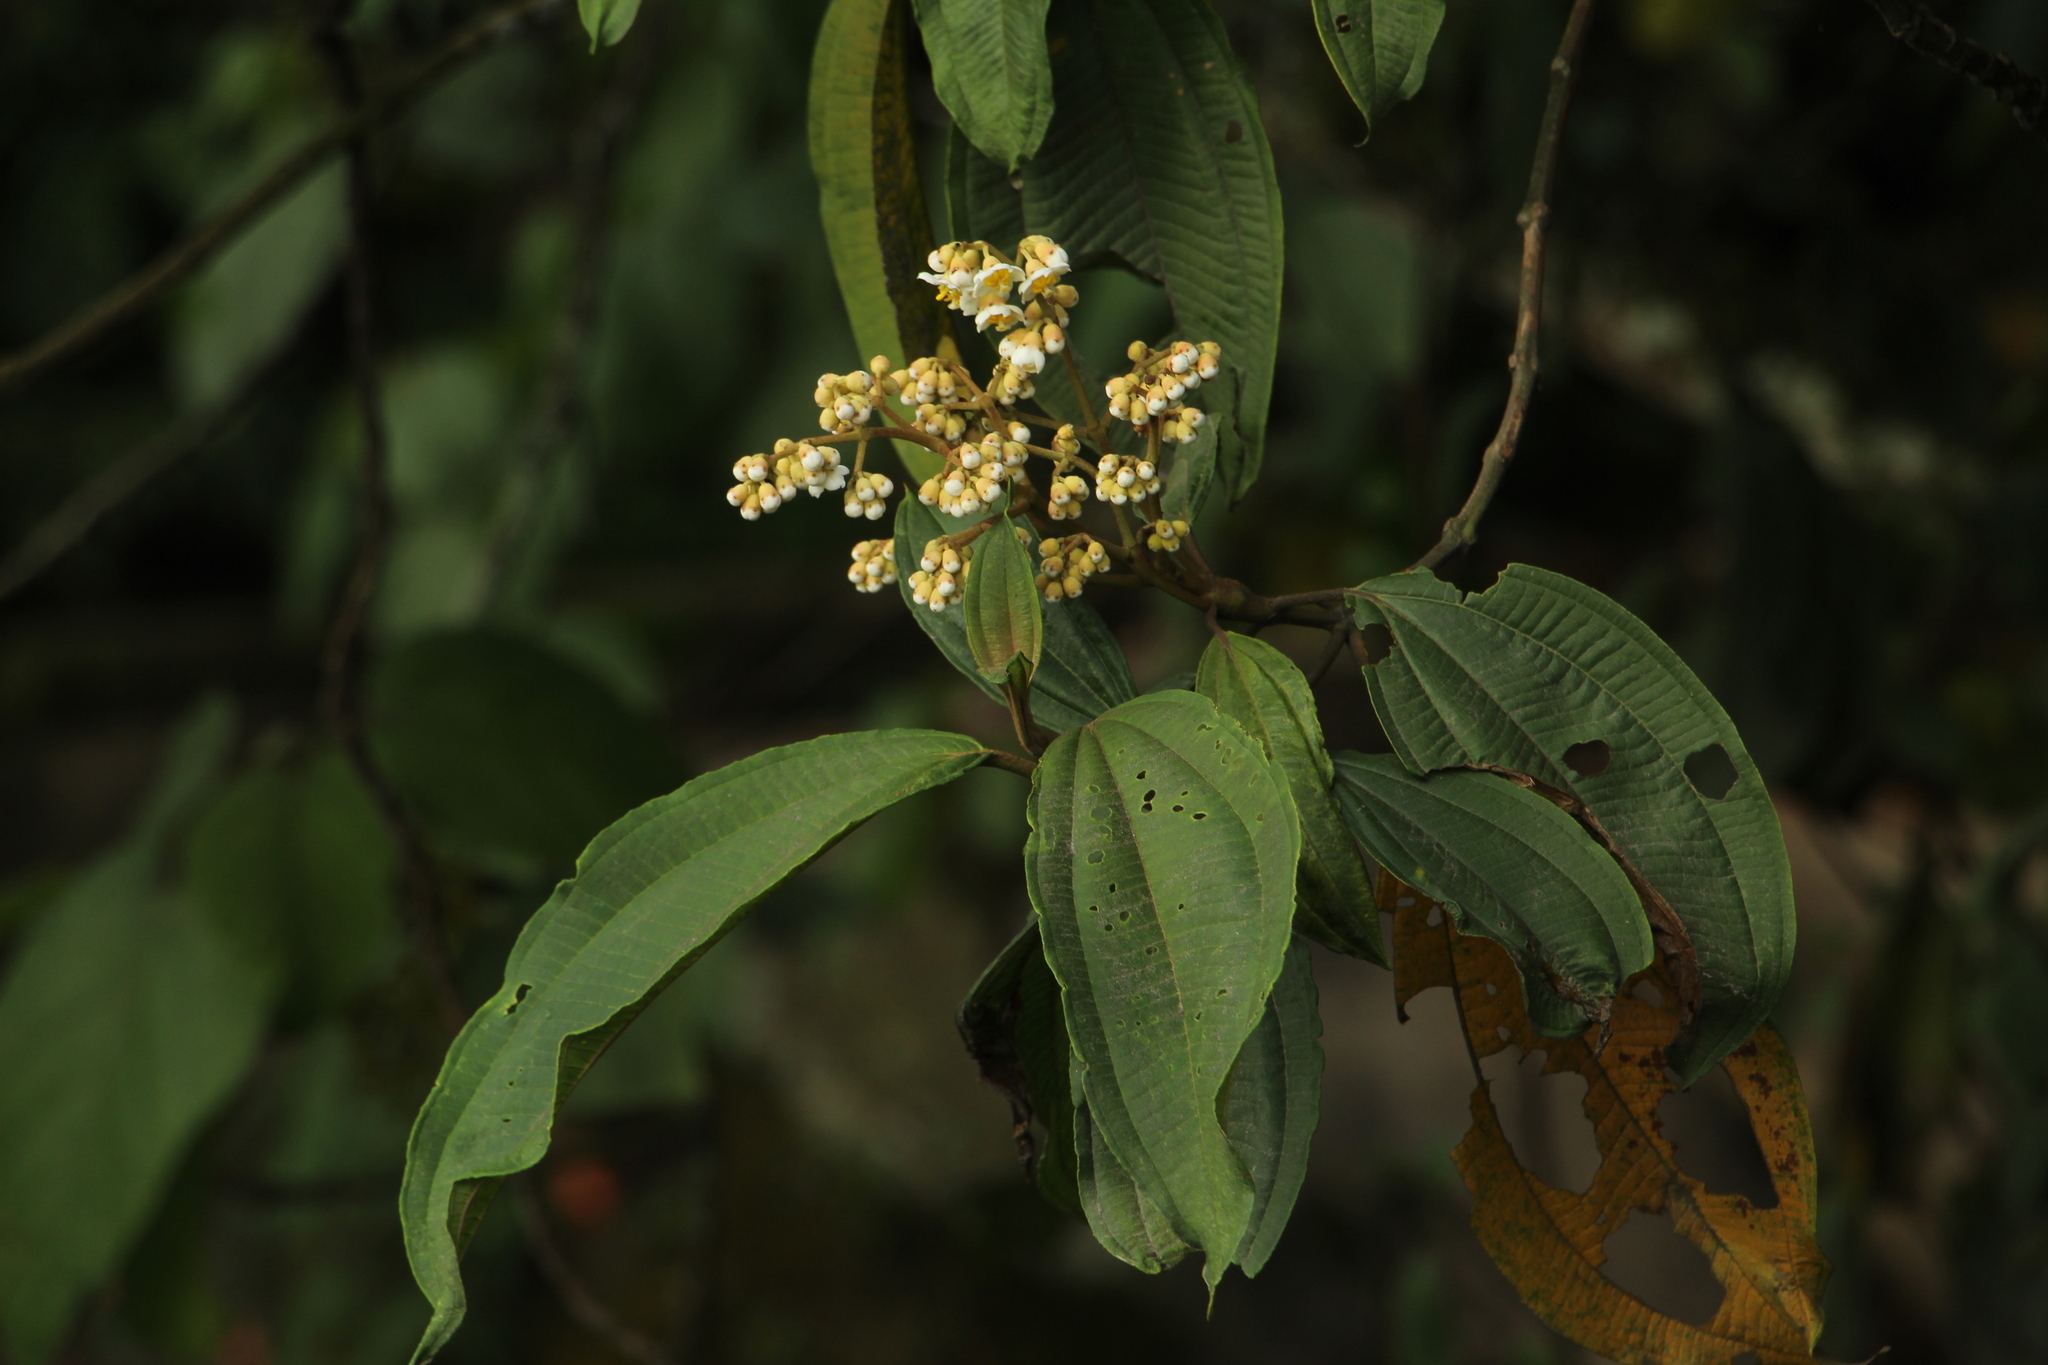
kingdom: Plantae
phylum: Tracheophyta
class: Magnoliopsida
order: Myrtales
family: Melastomataceae
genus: Miconia
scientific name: Miconia bella
